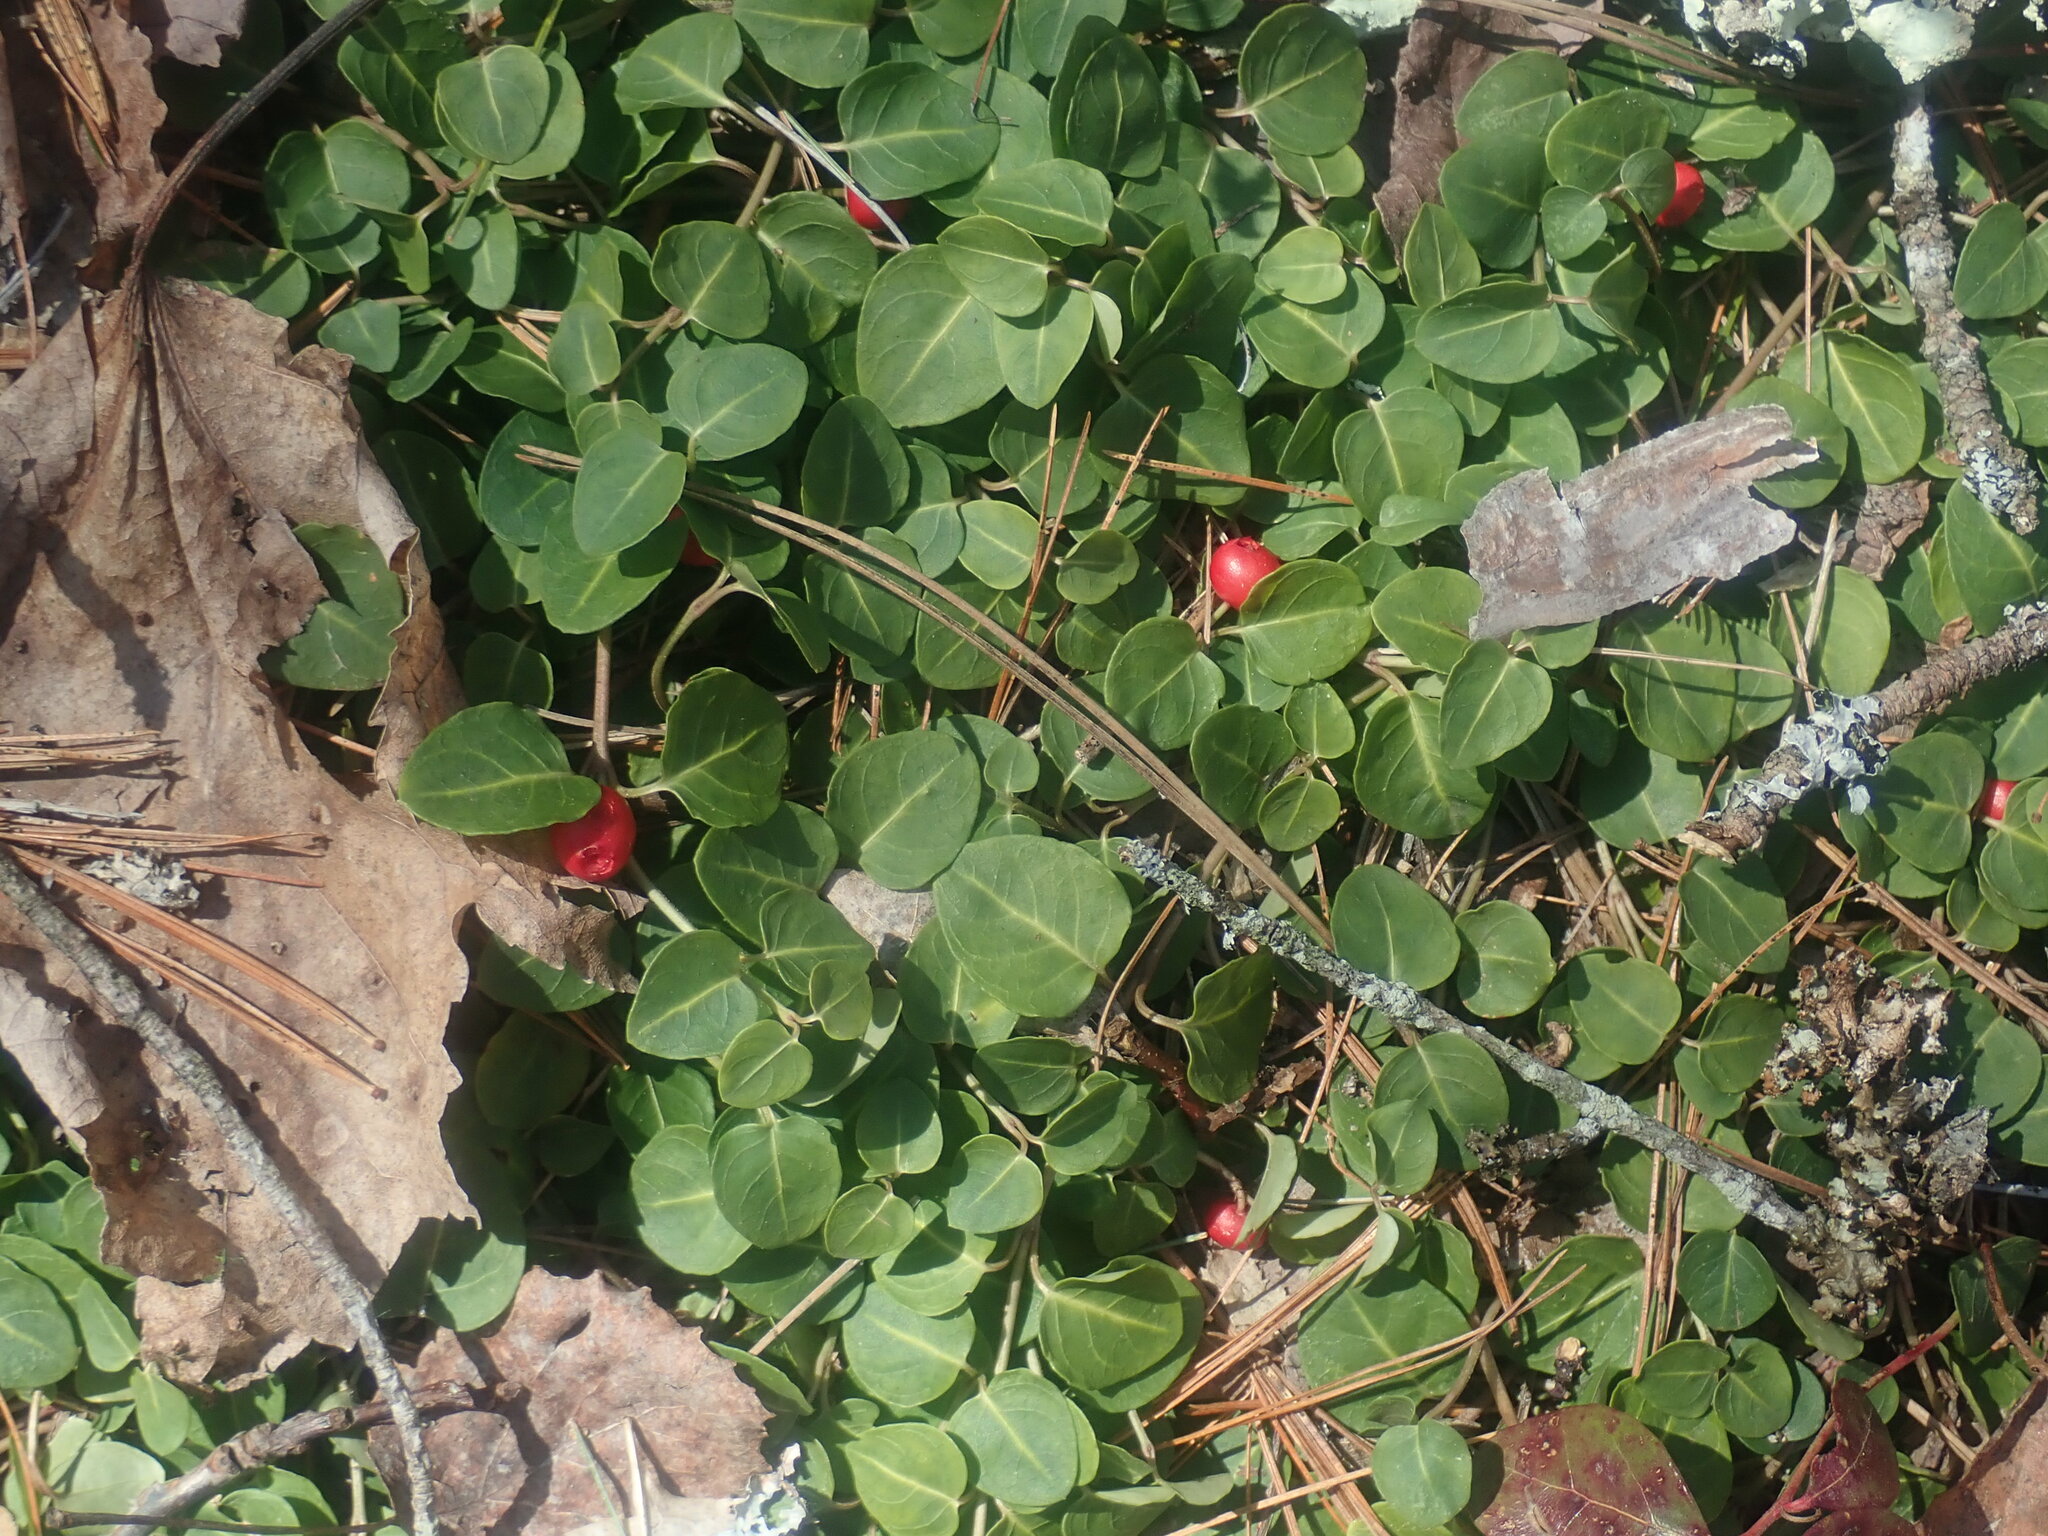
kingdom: Plantae
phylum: Tracheophyta
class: Magnoliopsida
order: Gentianales
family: Rubiaceae
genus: Mitchella
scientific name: Mitchella repens
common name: Partridge-berry
